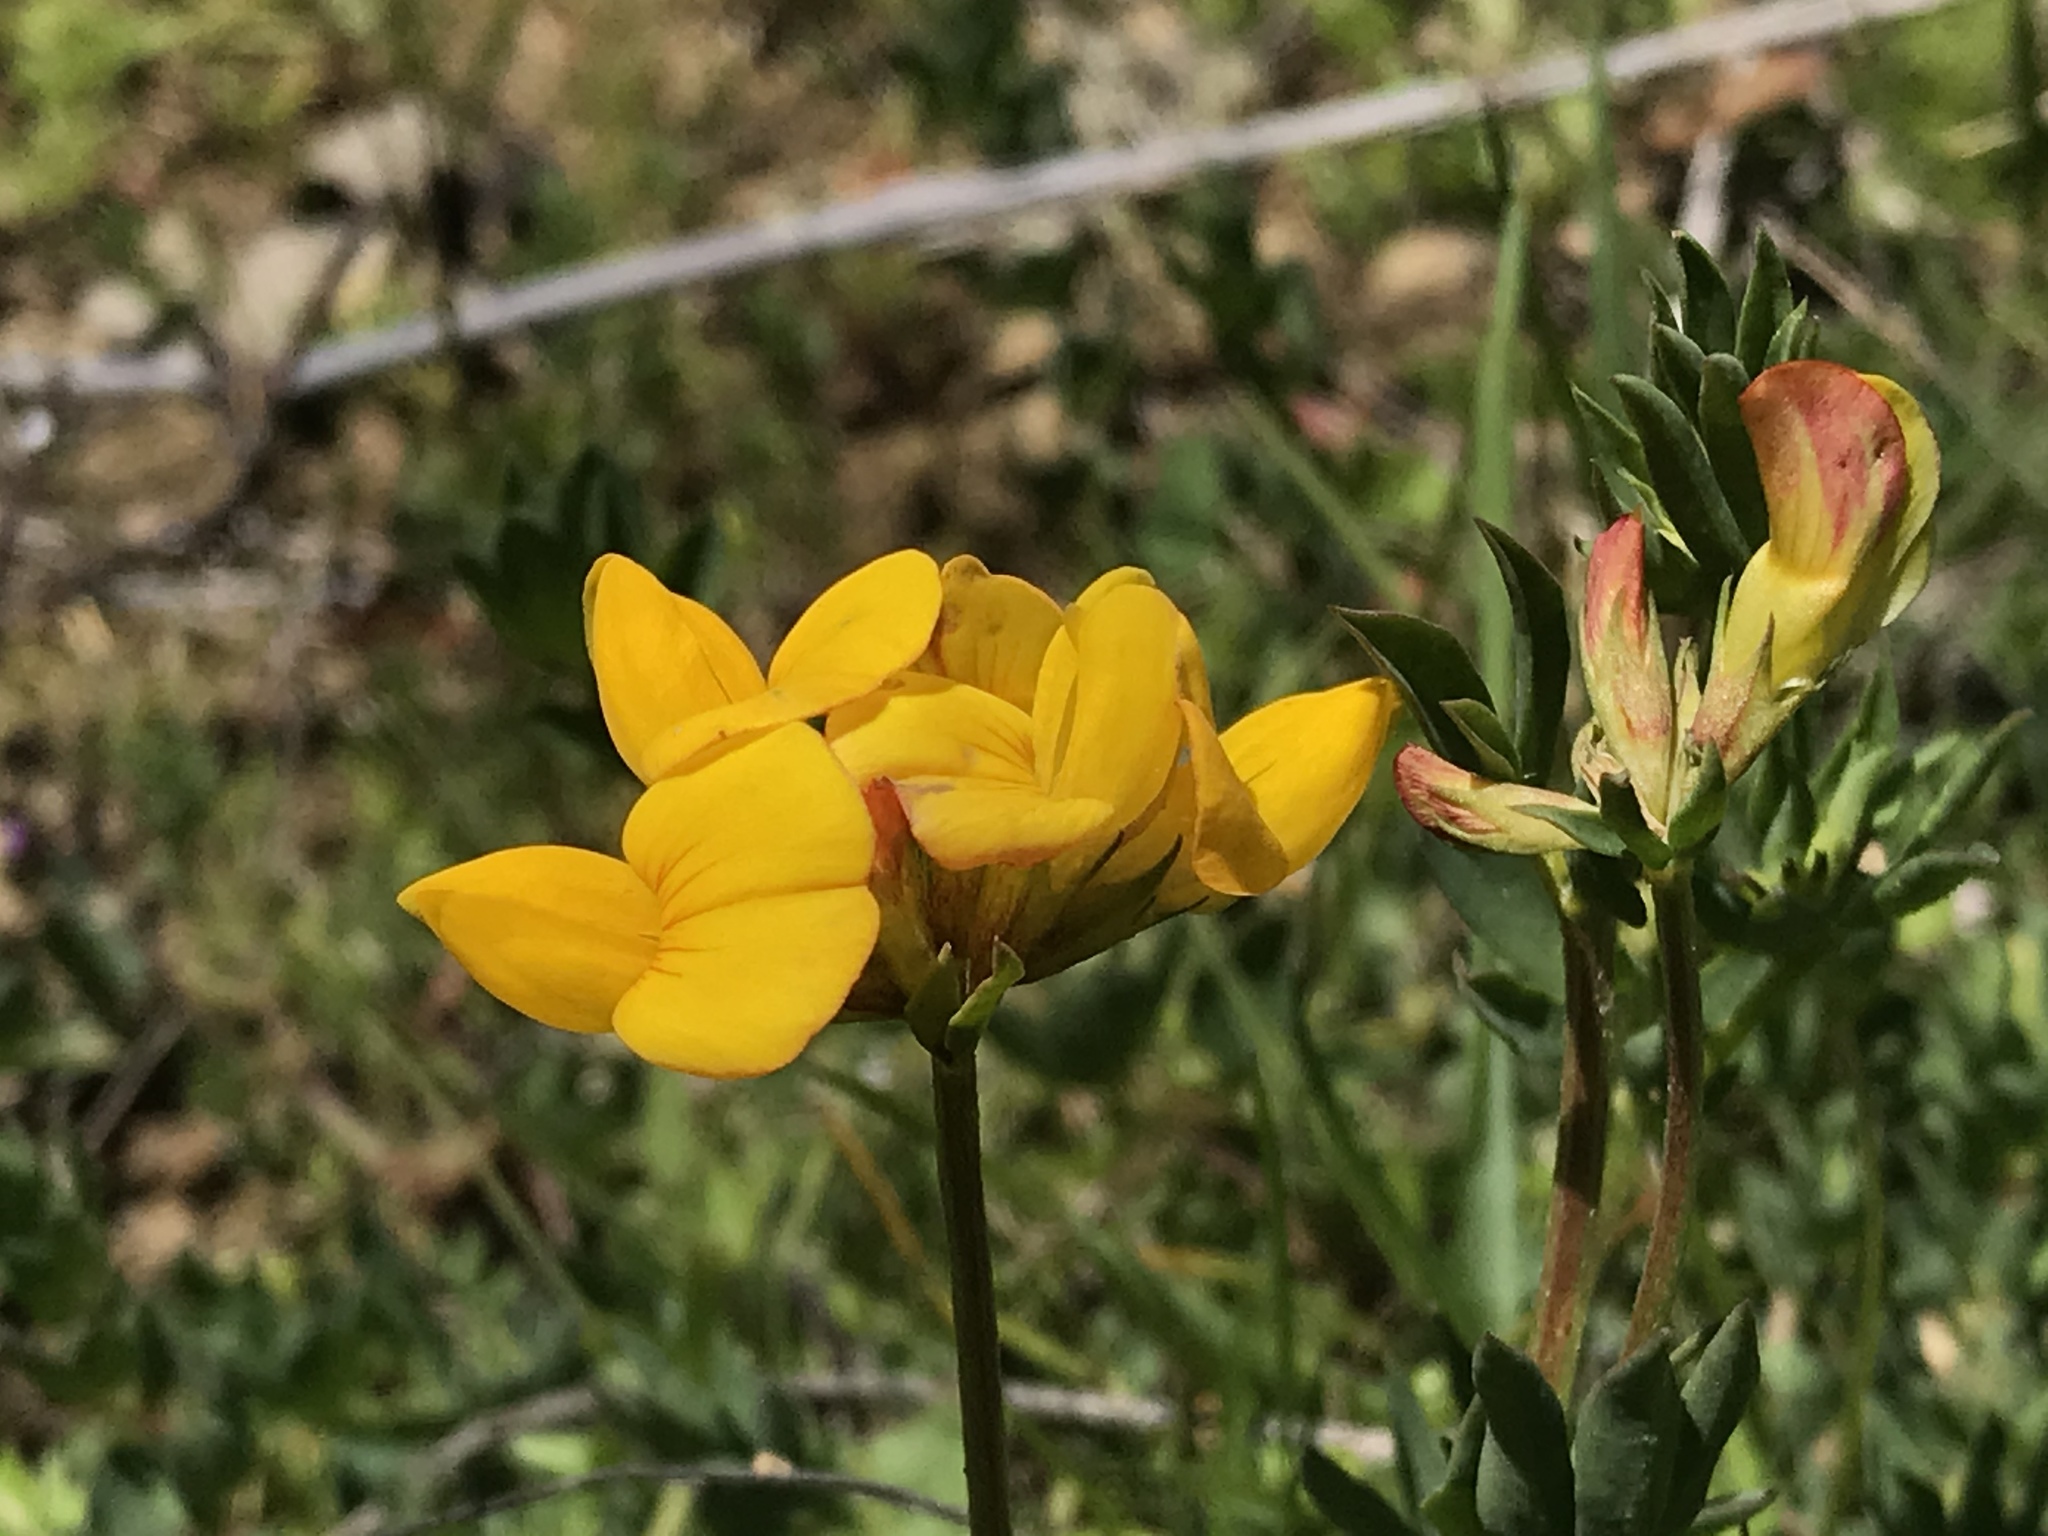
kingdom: Plantae
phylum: Tracheophyta
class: Magnoliopsida
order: Fabales
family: Fabaceae
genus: Lotus
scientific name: Lotus corniculatus
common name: Common bird's-foot-trefoil
